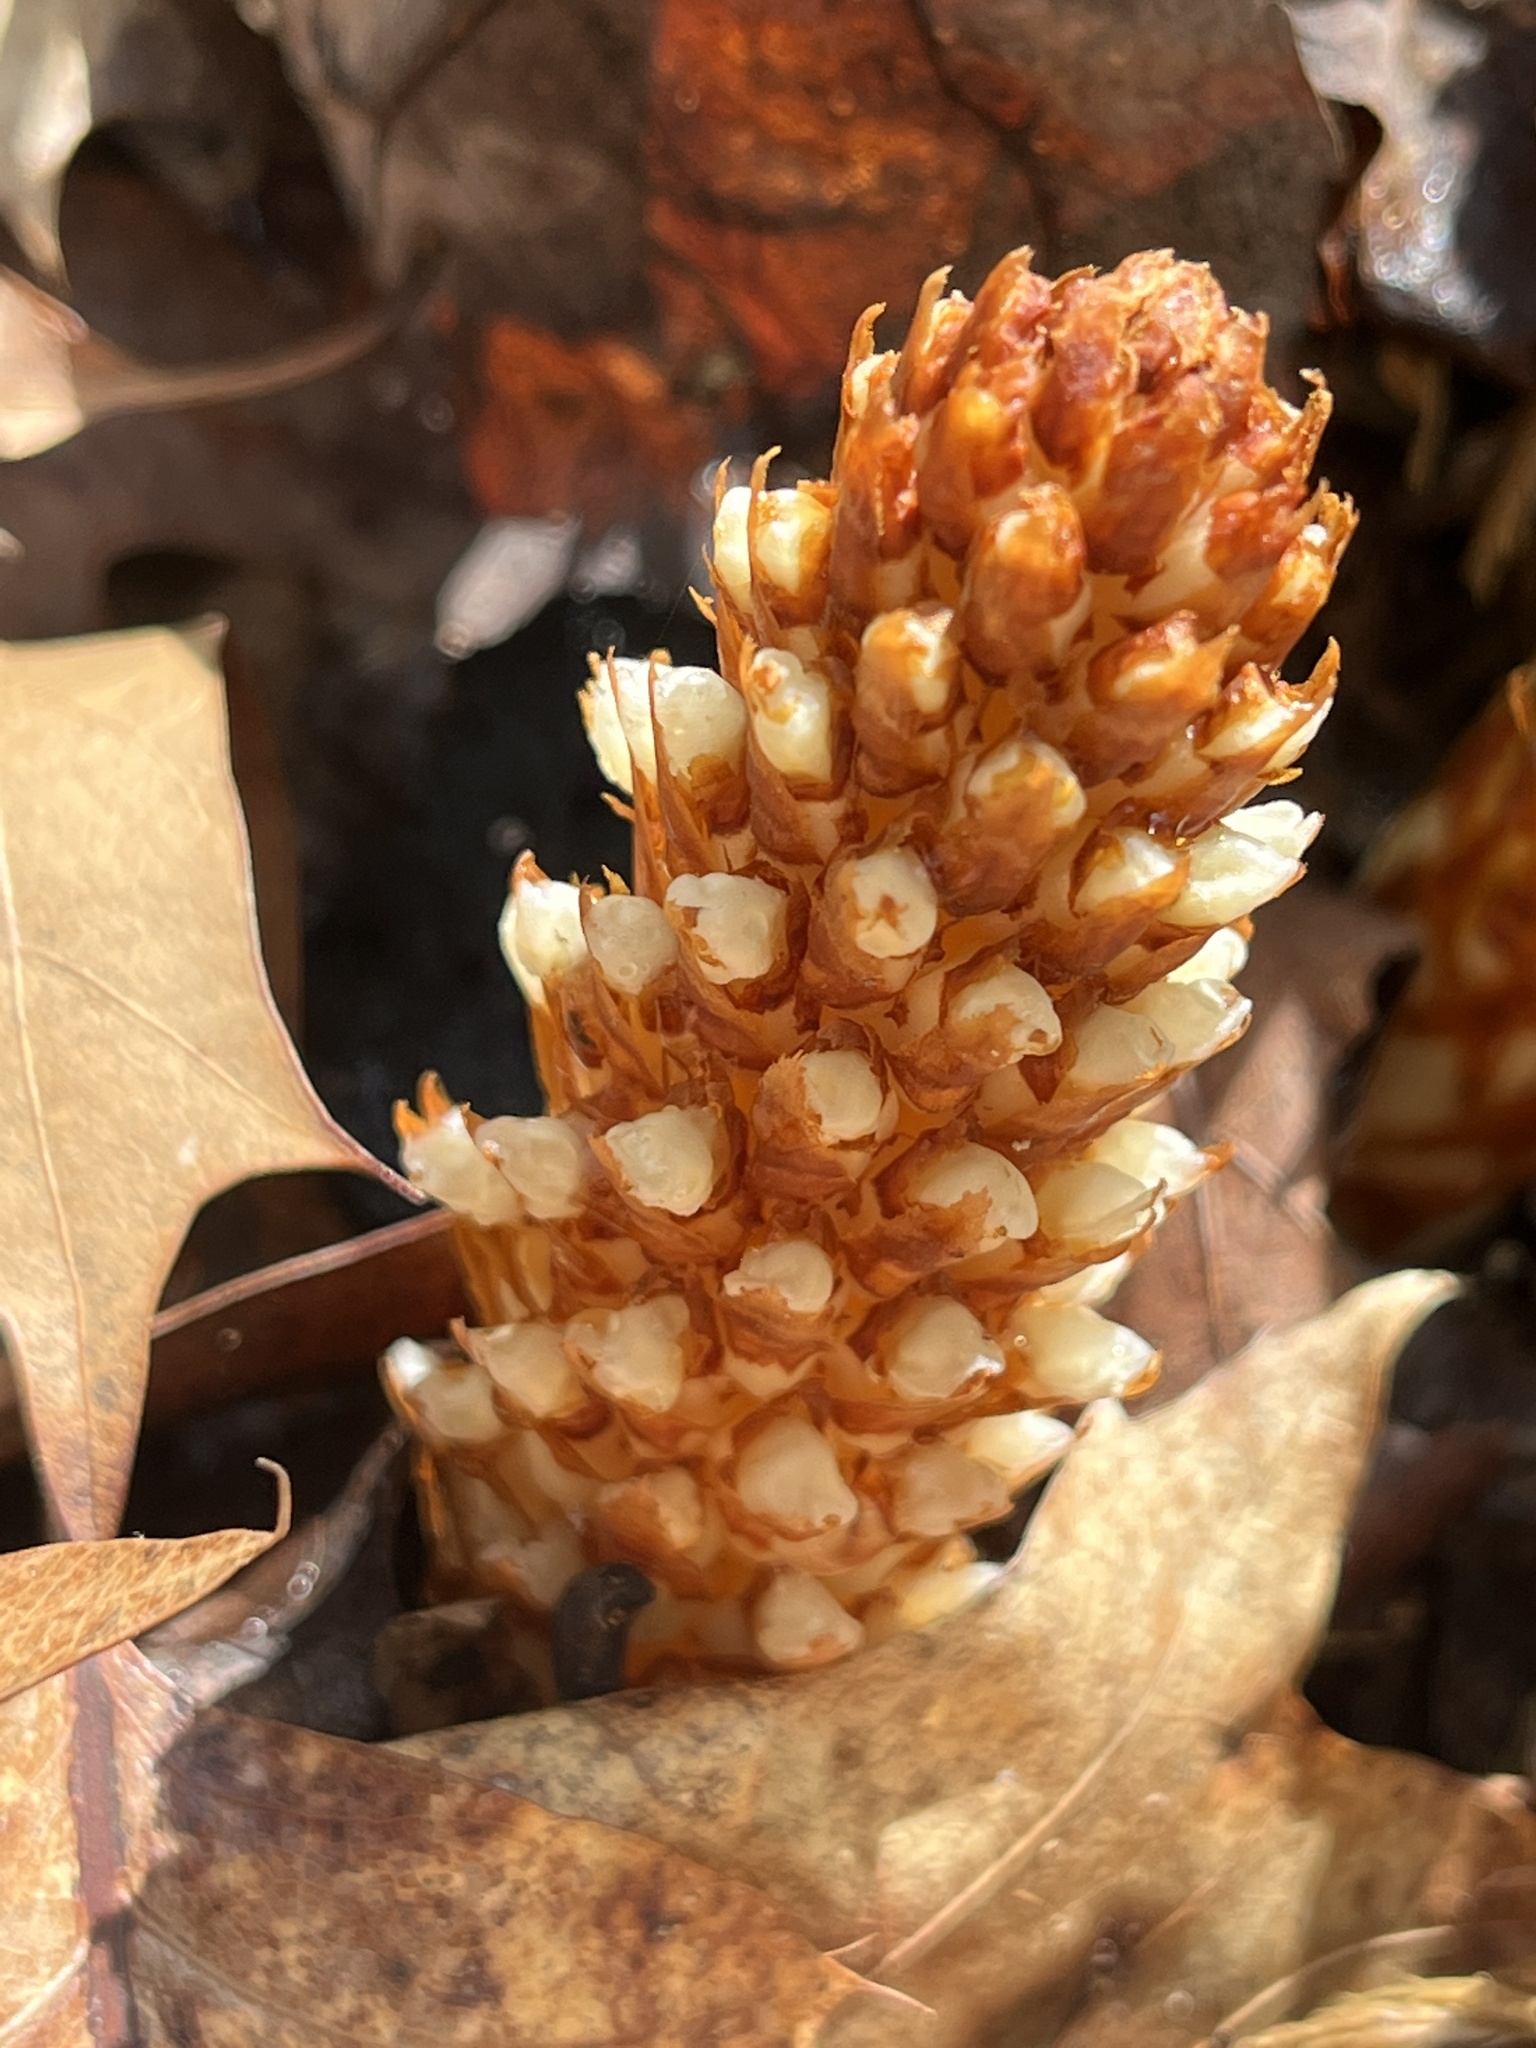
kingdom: Plantae
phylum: Tracheophyta
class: Magnoliopsida
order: Lamiales
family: Orobanchaceae
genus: Conopholis
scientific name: Conopholis americana
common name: American cancer-root
